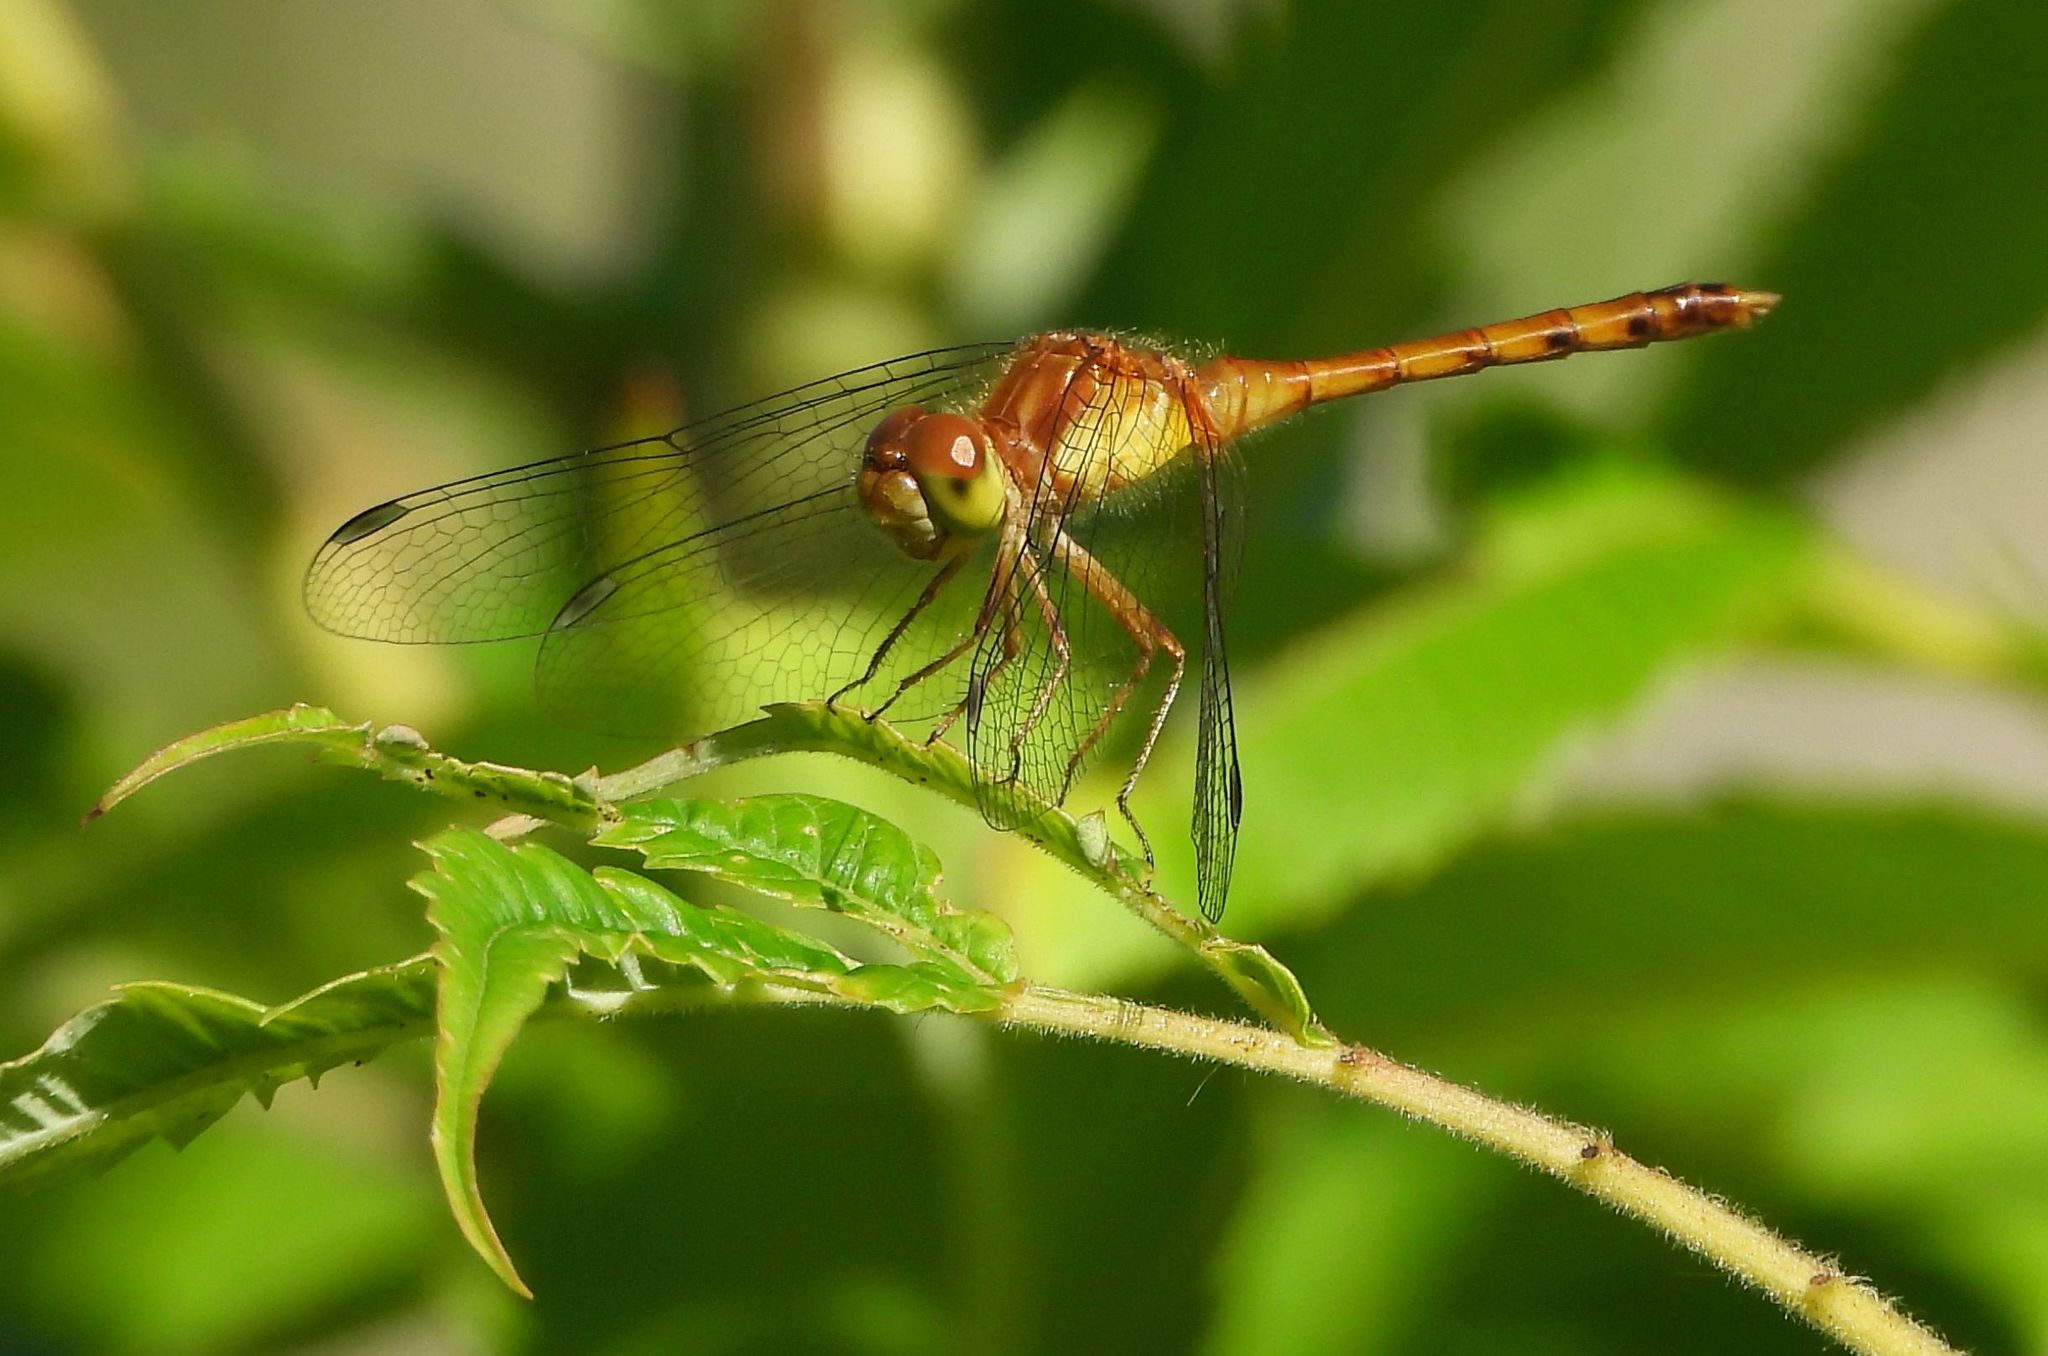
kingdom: Animalia
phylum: Arthropoda
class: Insecta
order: Odonata
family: Libellulidae
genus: Sympetrum
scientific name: Sympetrum vicinum
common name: Autumn meadowhawk
